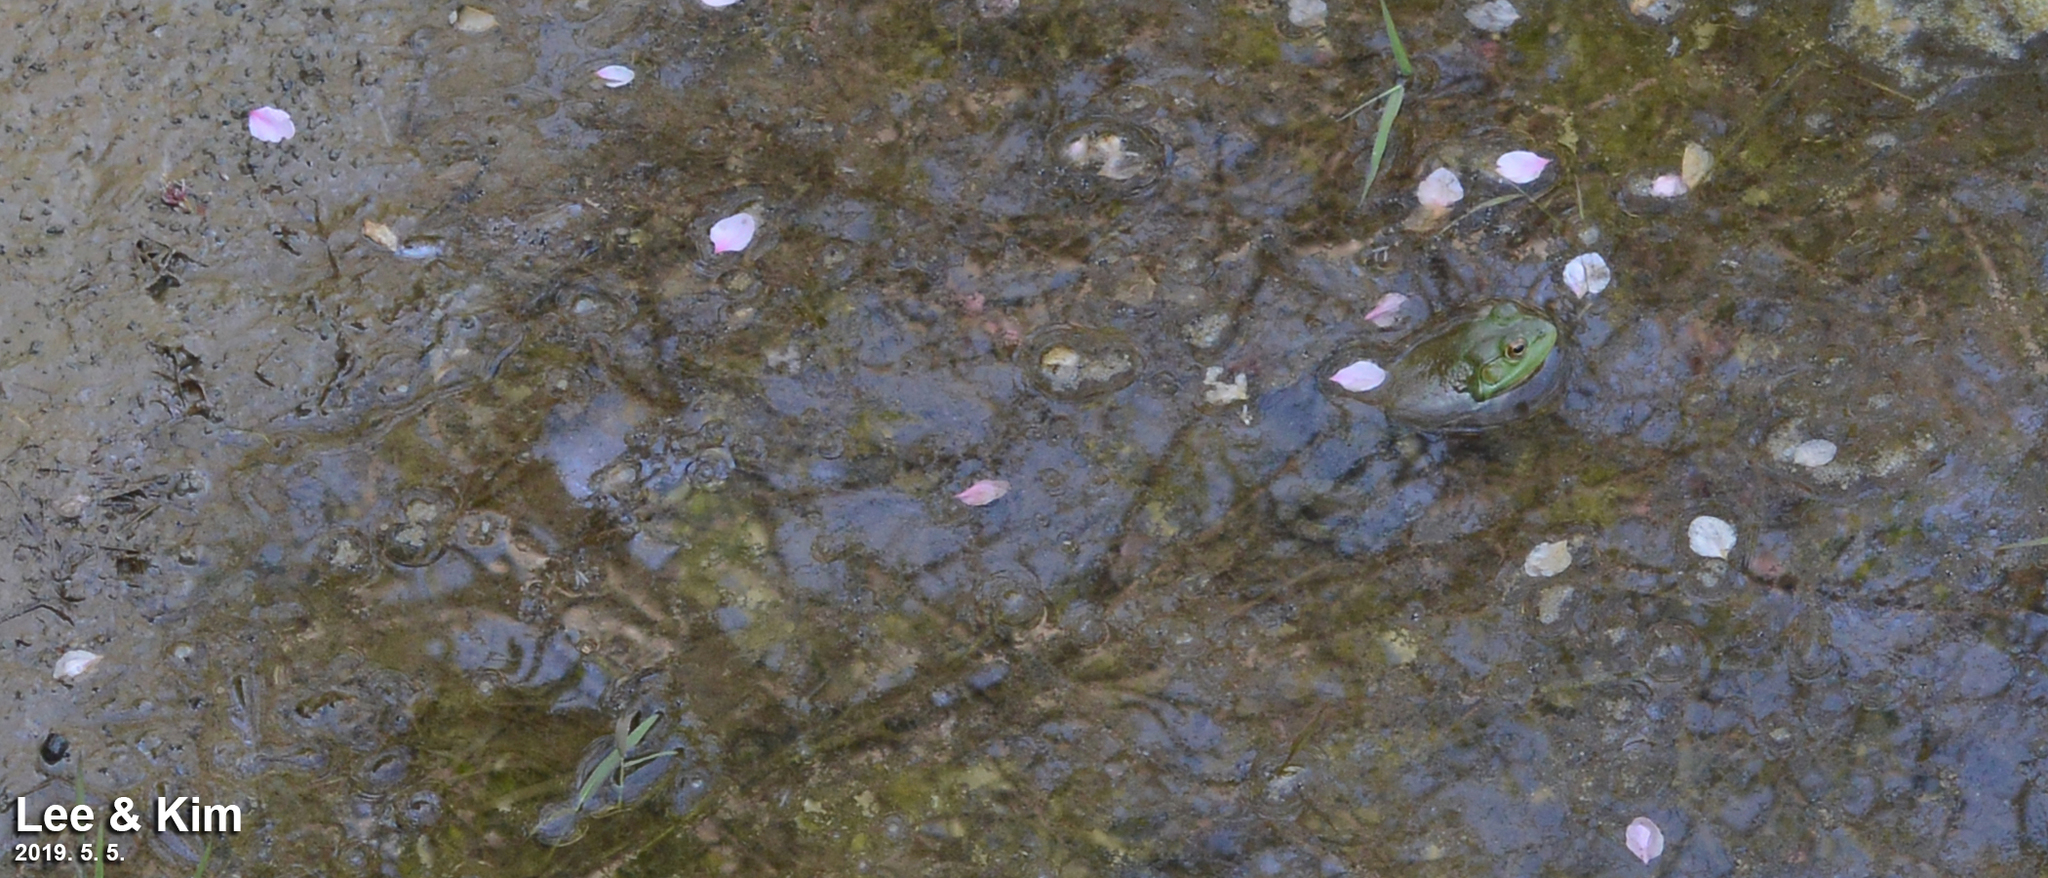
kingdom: Animalia
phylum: Chordata
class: Amphibia
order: Anura
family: Ranidae
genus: Lithobates
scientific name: Lithobates catesbeianus
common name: American bullfrog
